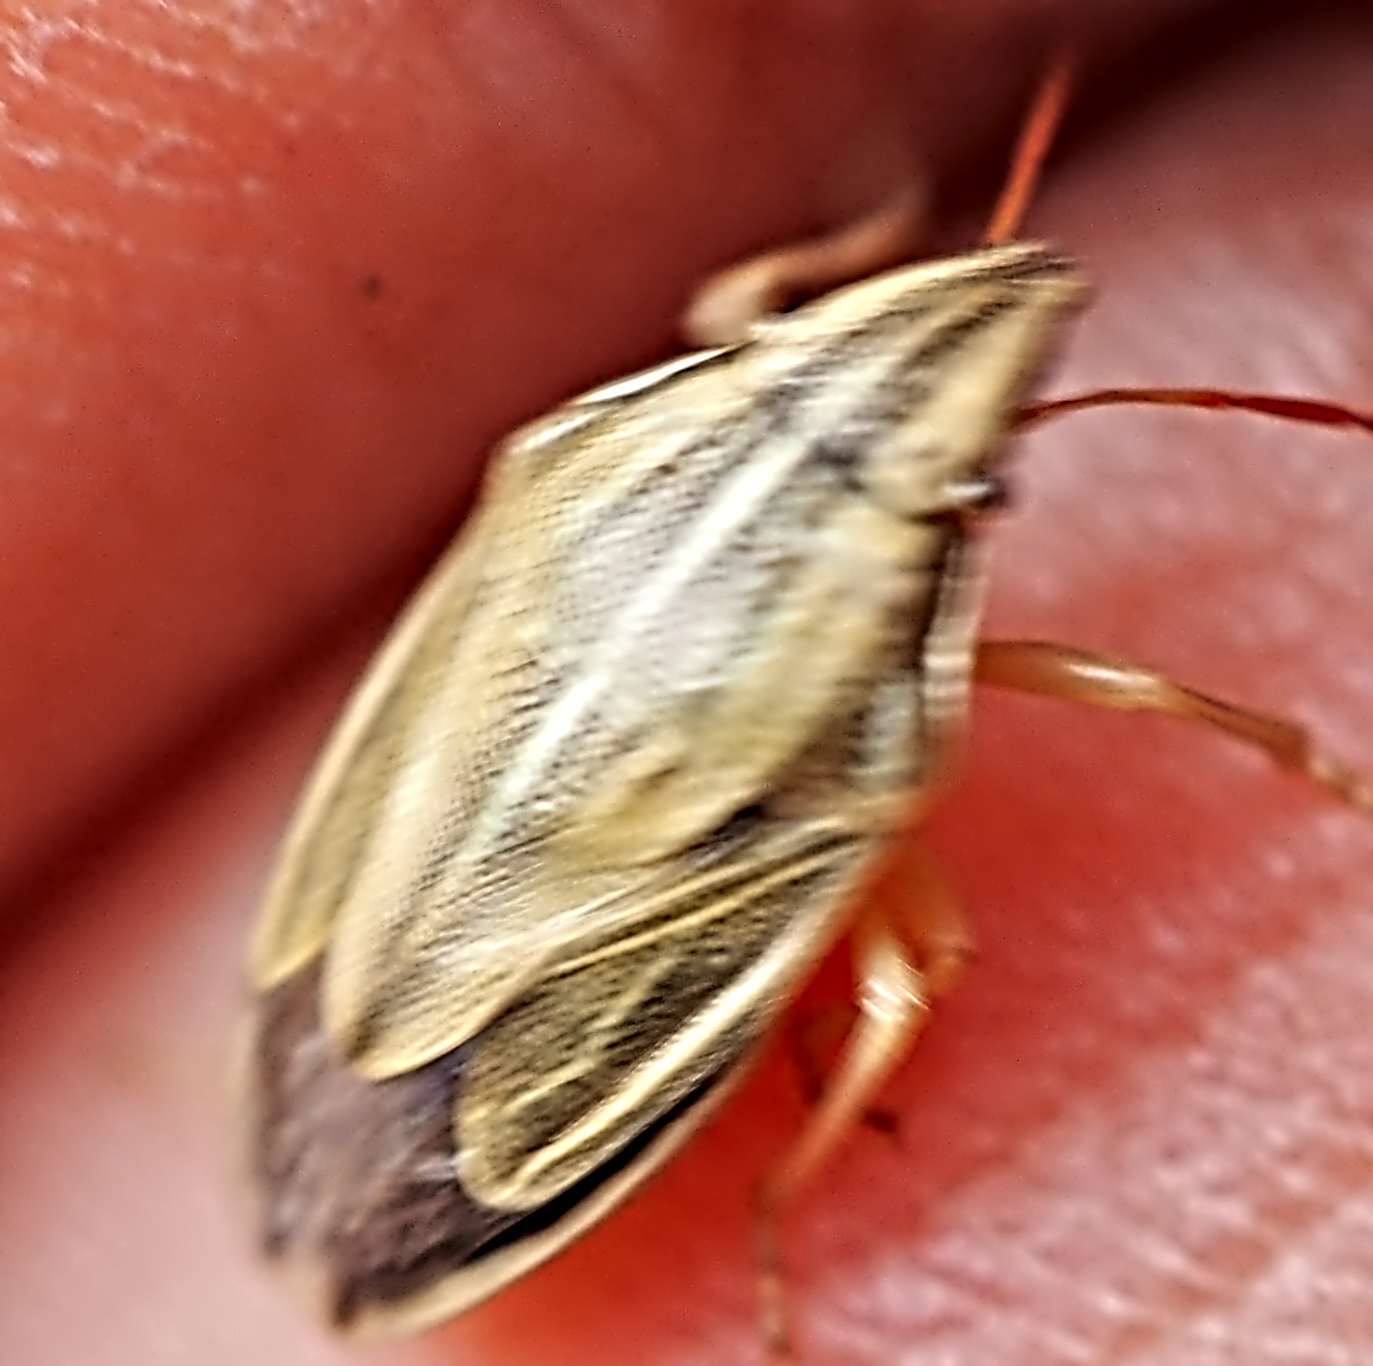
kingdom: Animalia
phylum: Arthropoda
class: Insecta
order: Hemiptera
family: Pentatomidae
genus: Aelia
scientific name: Aelia acuminata
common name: Bishop's mitre
